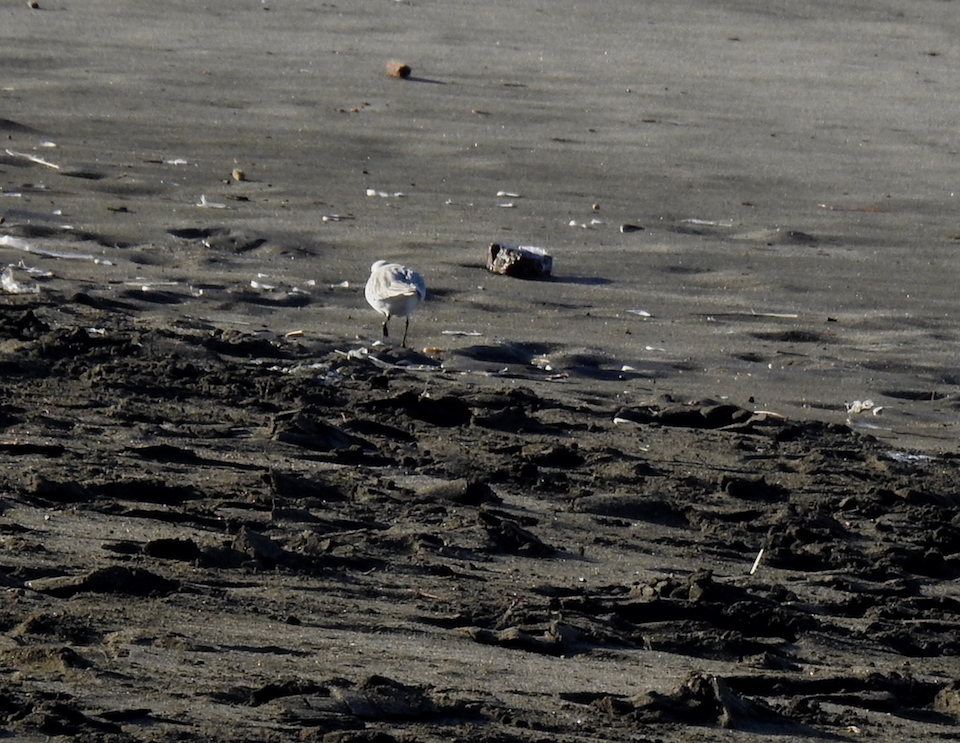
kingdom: Animalia
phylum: Chordata
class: Aves
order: Charadriiformes
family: Scolopacidae
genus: Calidris
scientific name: Calidris alba
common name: Sanderling
